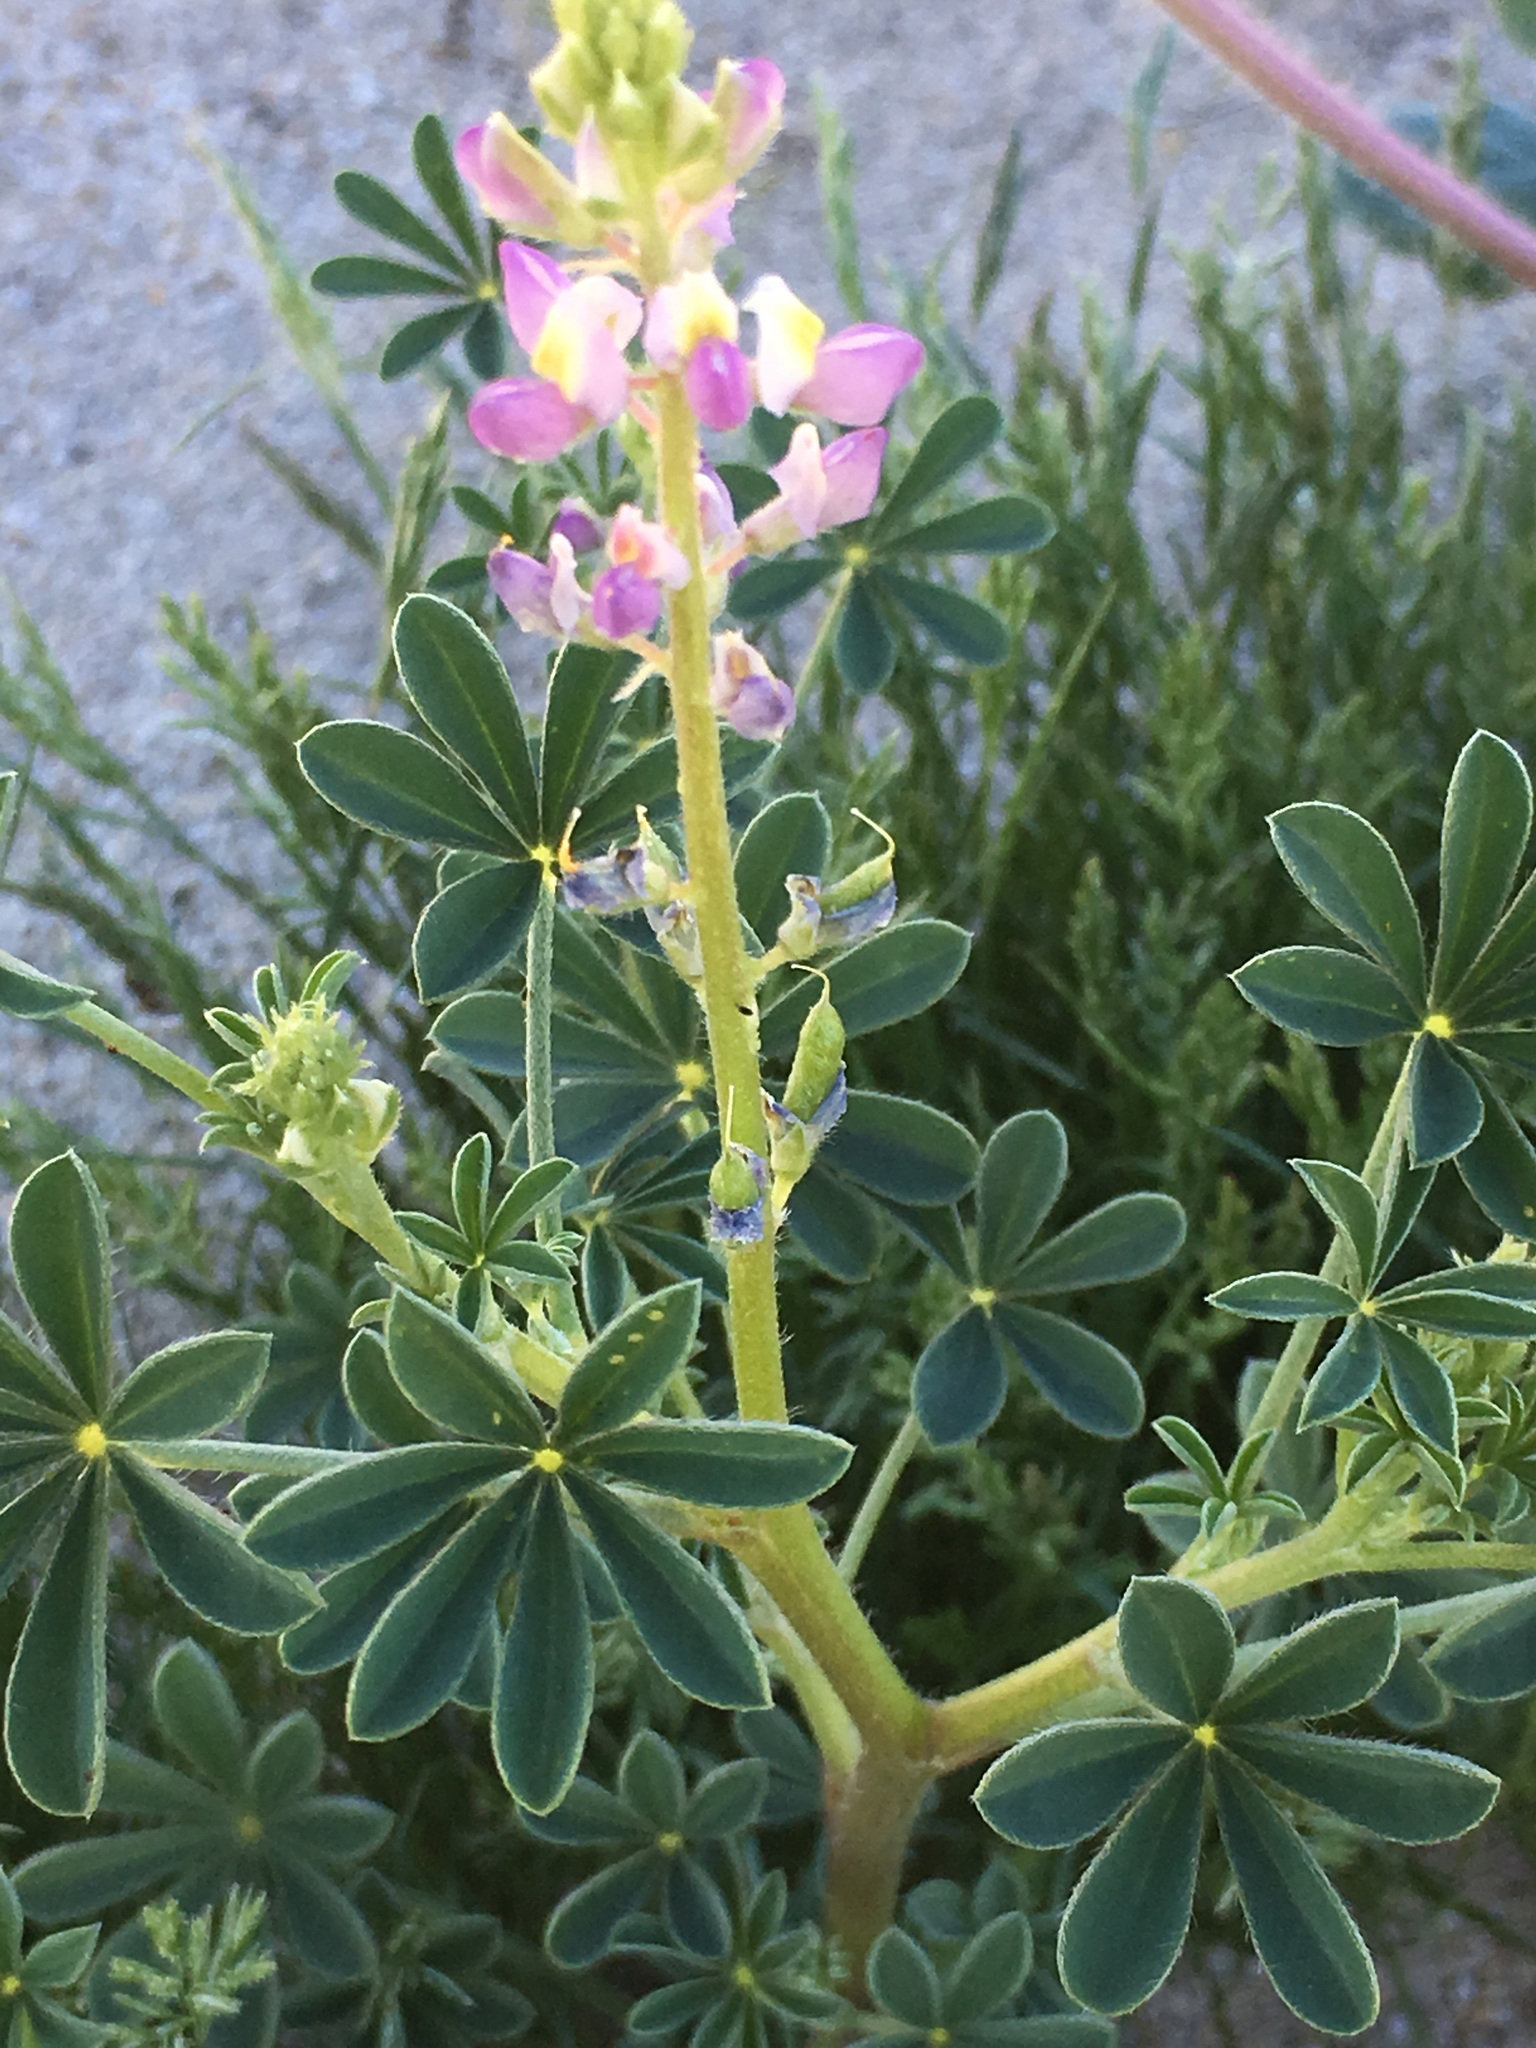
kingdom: Plantae
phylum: Tracheophyta
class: Magnoliopsida
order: Fabales
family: Fabaceae
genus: Lupinus
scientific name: Lupinus arizonicus
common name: Arizona lupine
